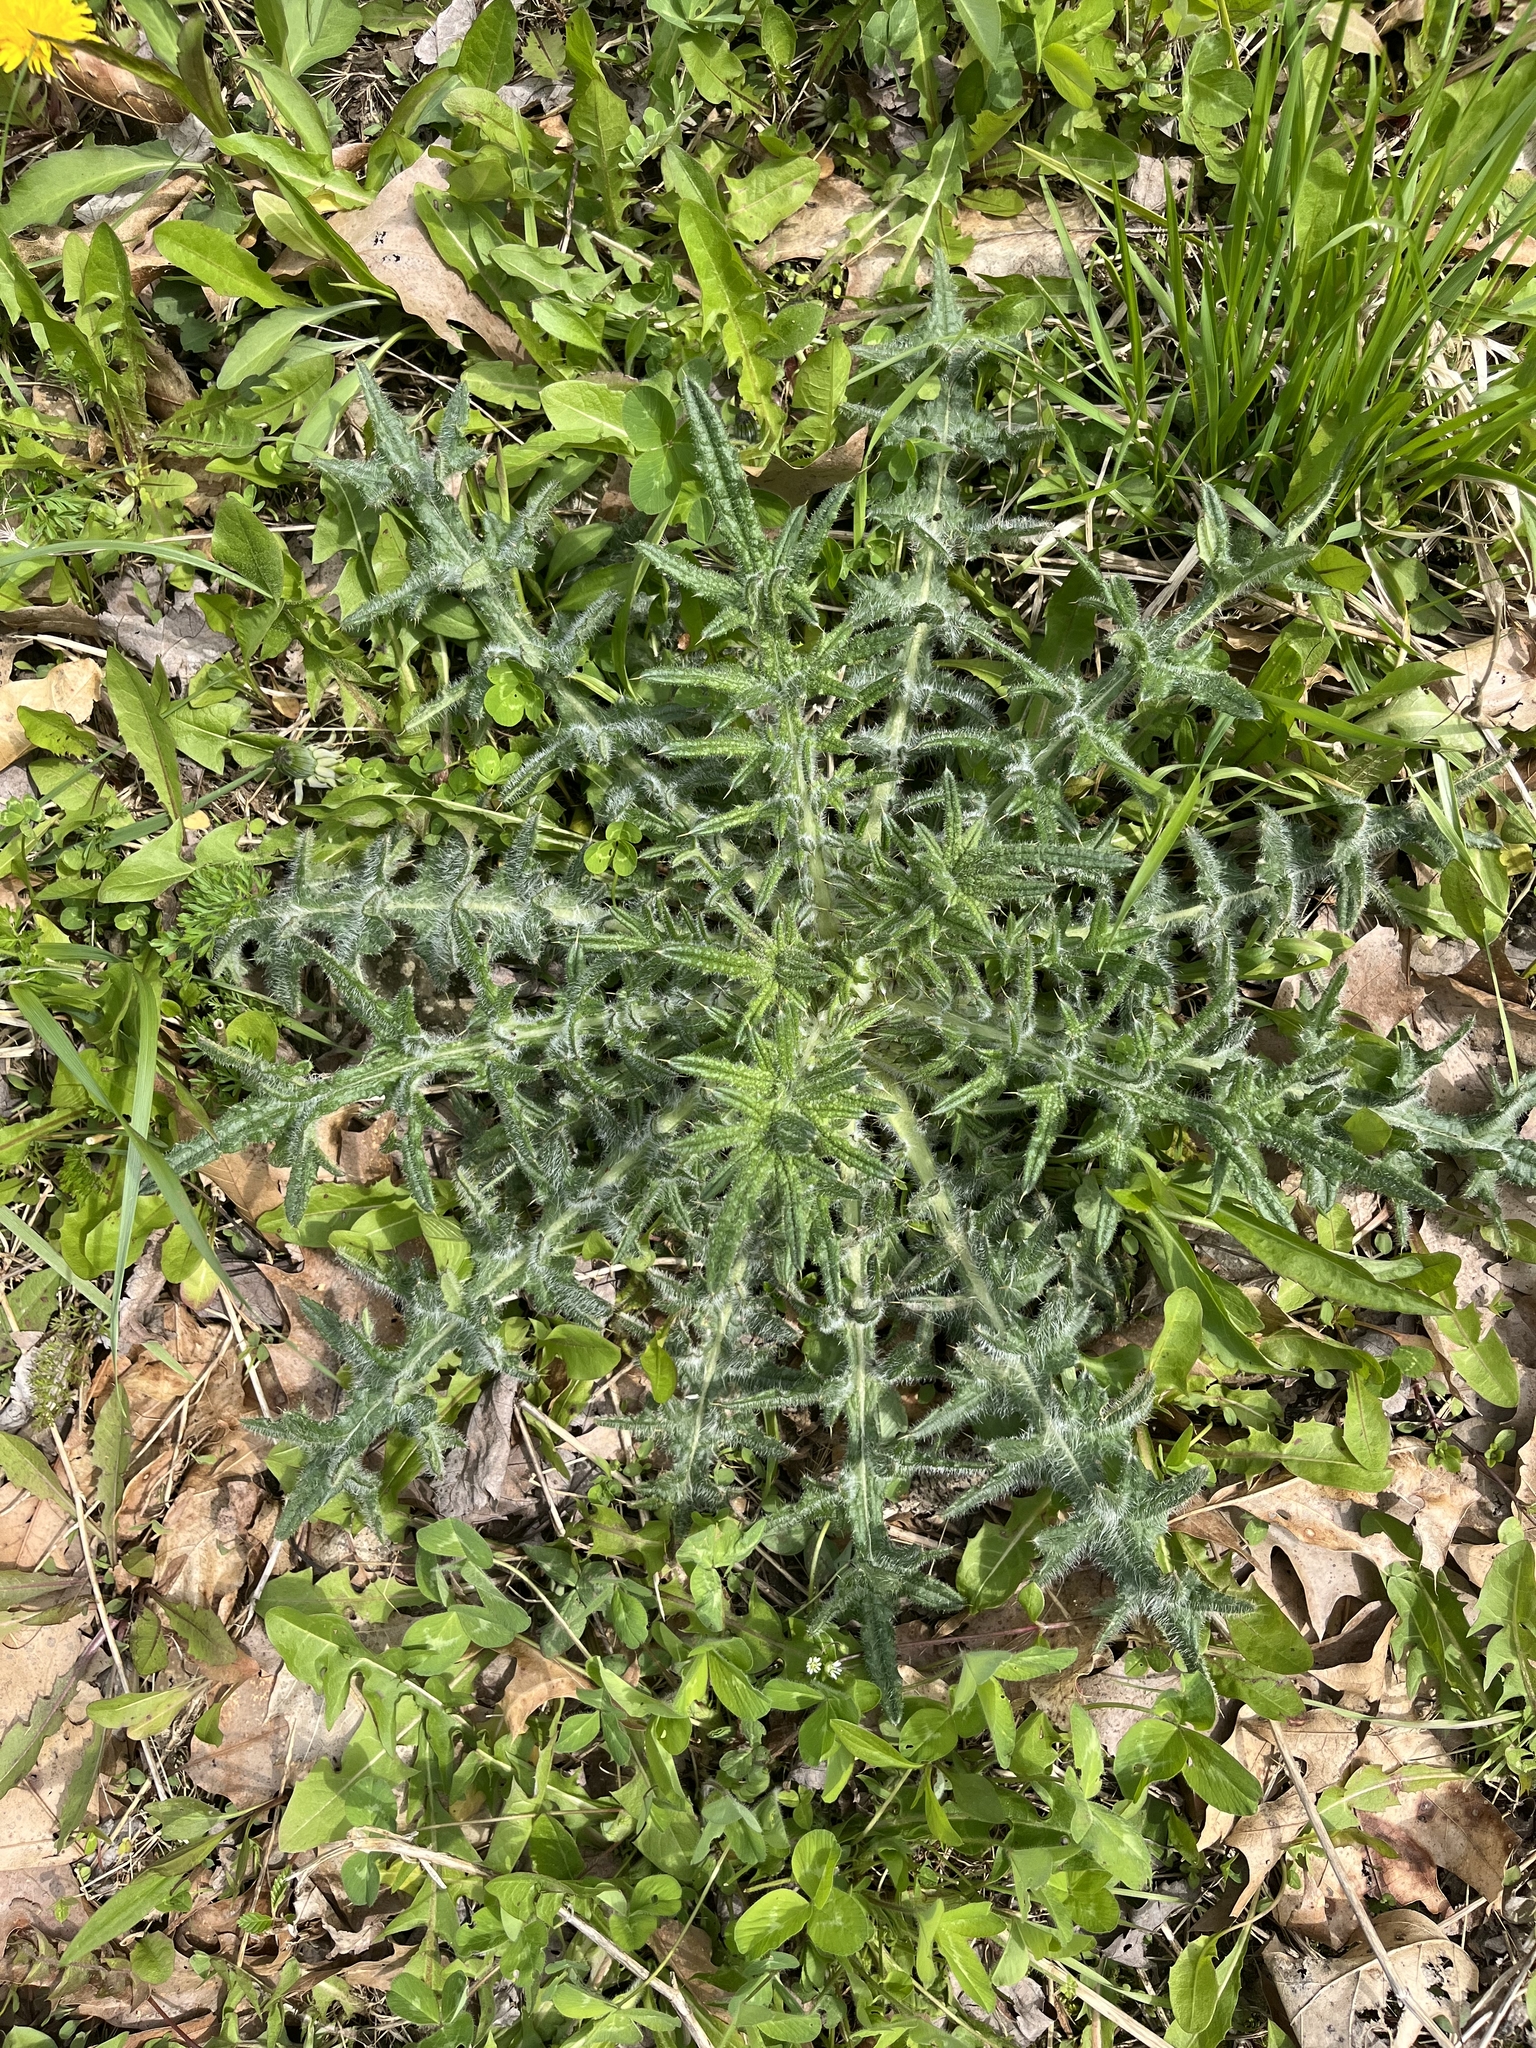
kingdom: Plantae
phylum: Tracheophyta
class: Magnoliopsida
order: Asterales
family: Asteraceae
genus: Cirsium
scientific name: Cirsium vulgare
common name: Bull thistle
